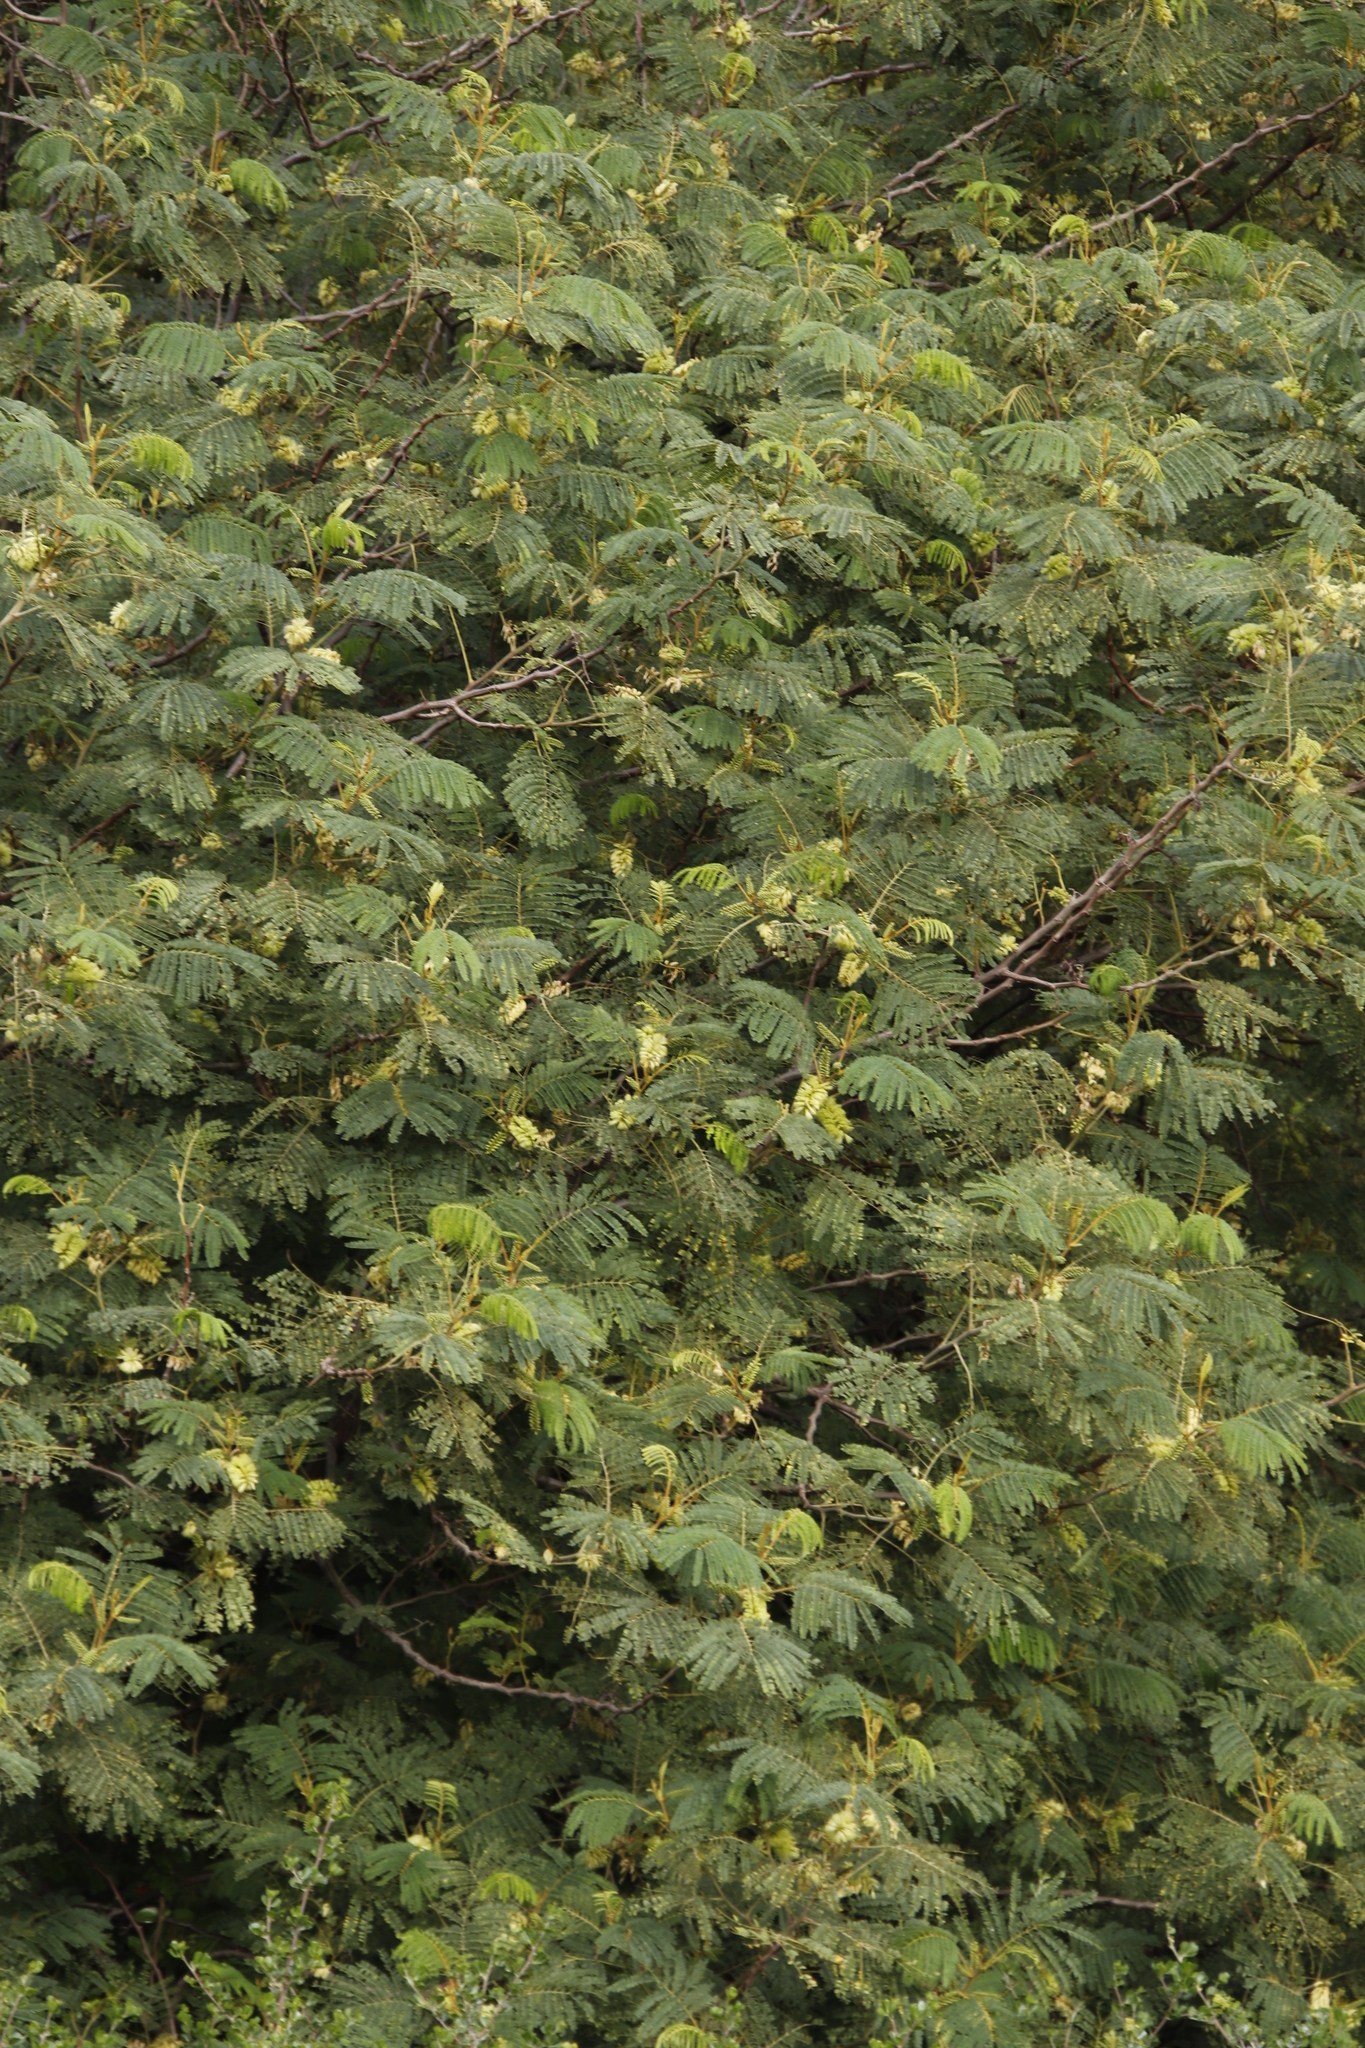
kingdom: Plantae
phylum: Tracheophyta
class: Magnoliopsida
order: Fabales
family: Fabaceae
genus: Paraserianthes
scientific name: Paraserianthes lophantha
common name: Plume albizia
